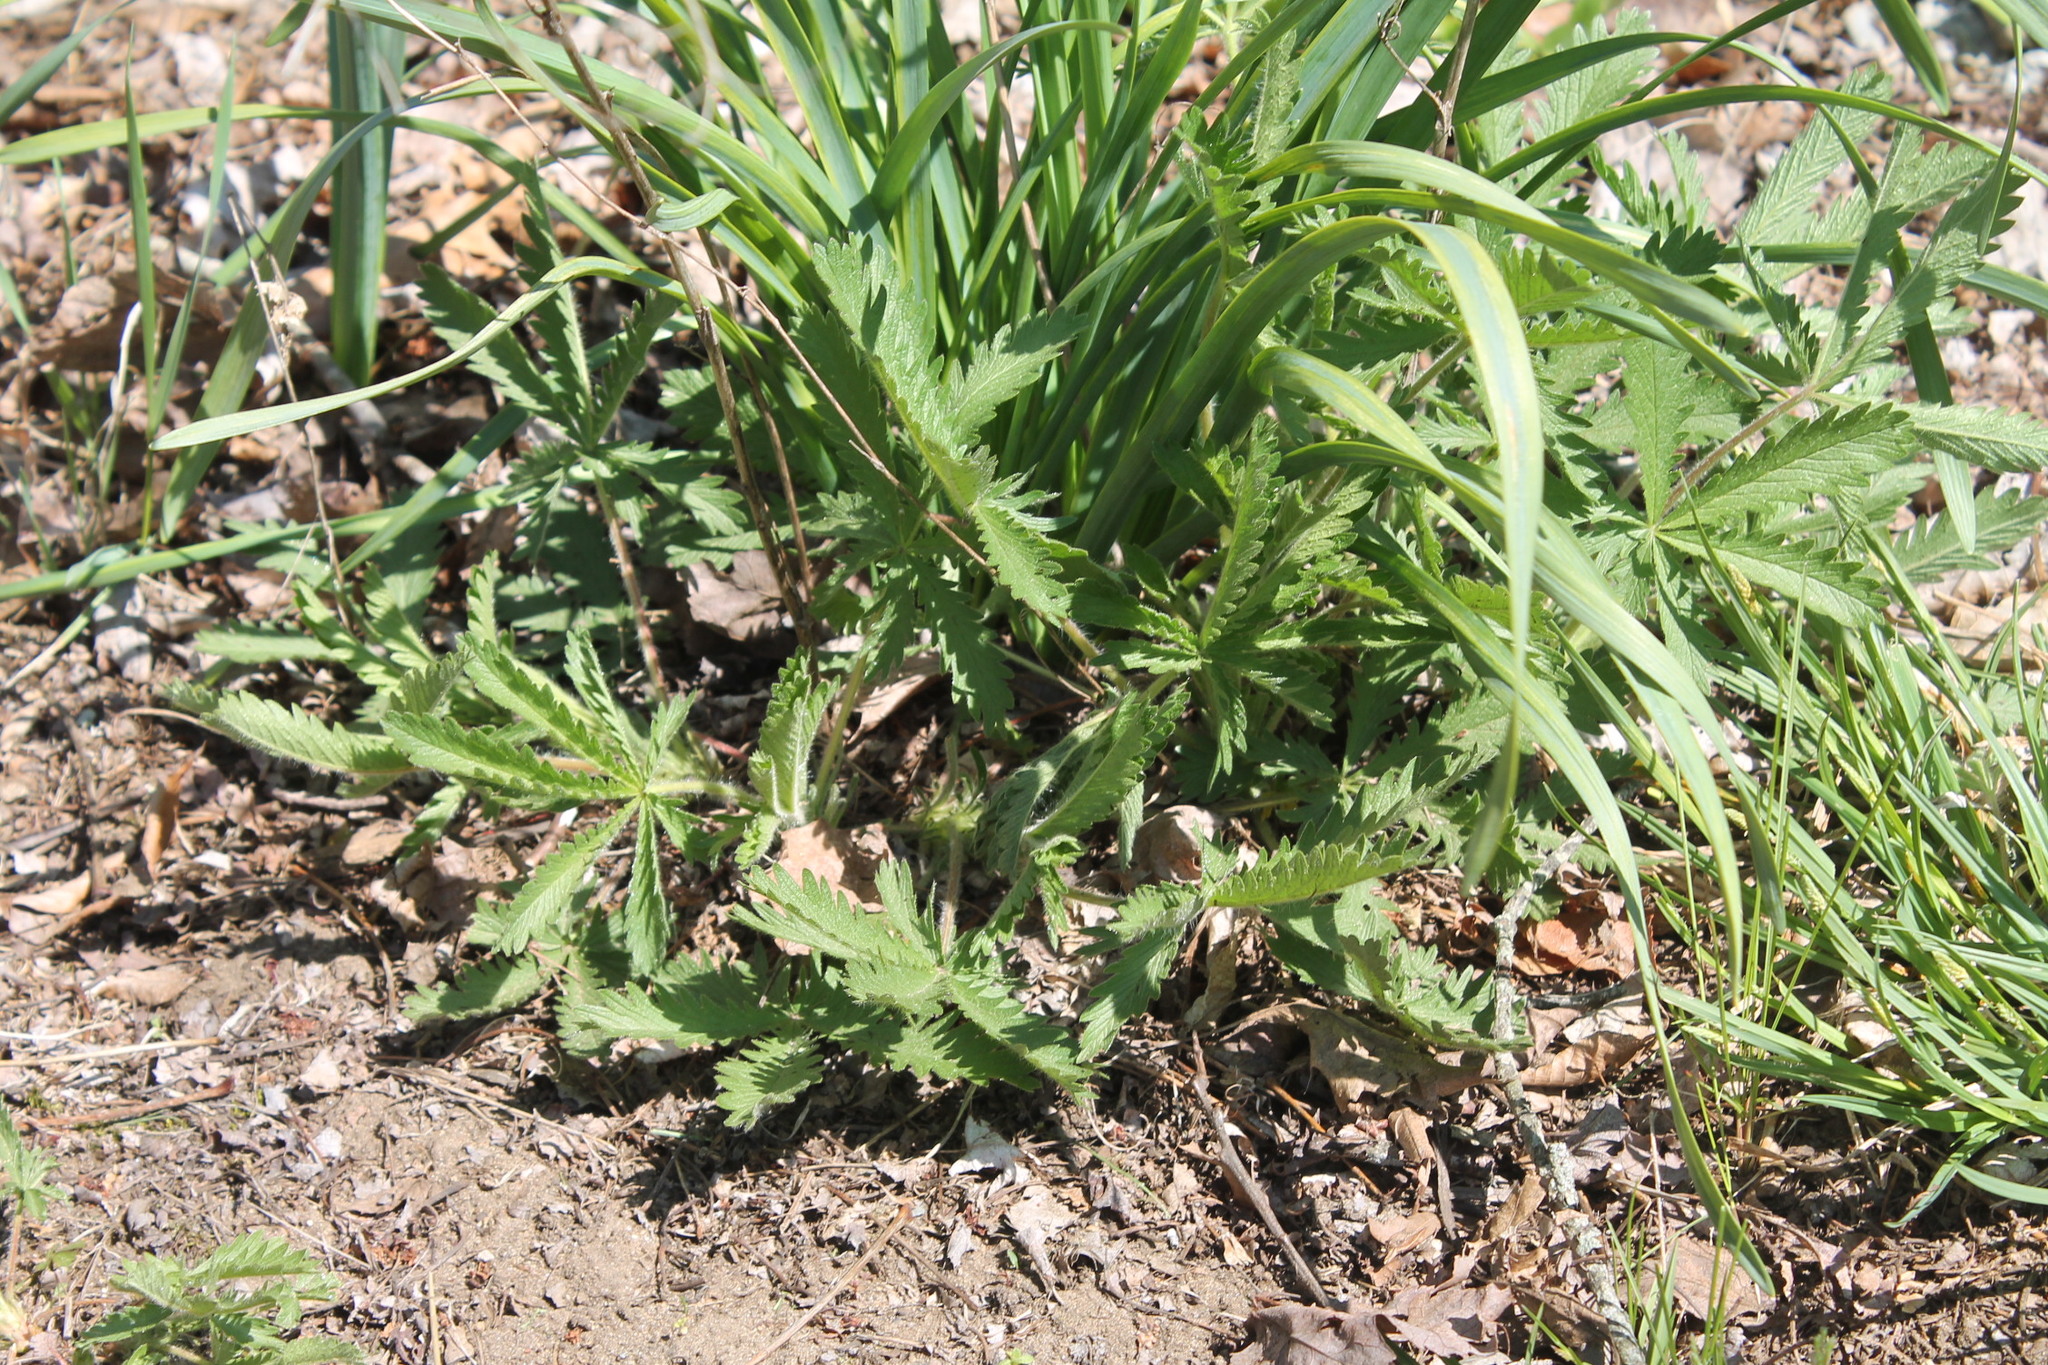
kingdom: Plantae
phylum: Tracheophyta
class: Magnoliopsida
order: Rosales
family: Rosaceae
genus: Potentilla
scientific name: Potentilla recta
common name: Sulphur cinquefoil
